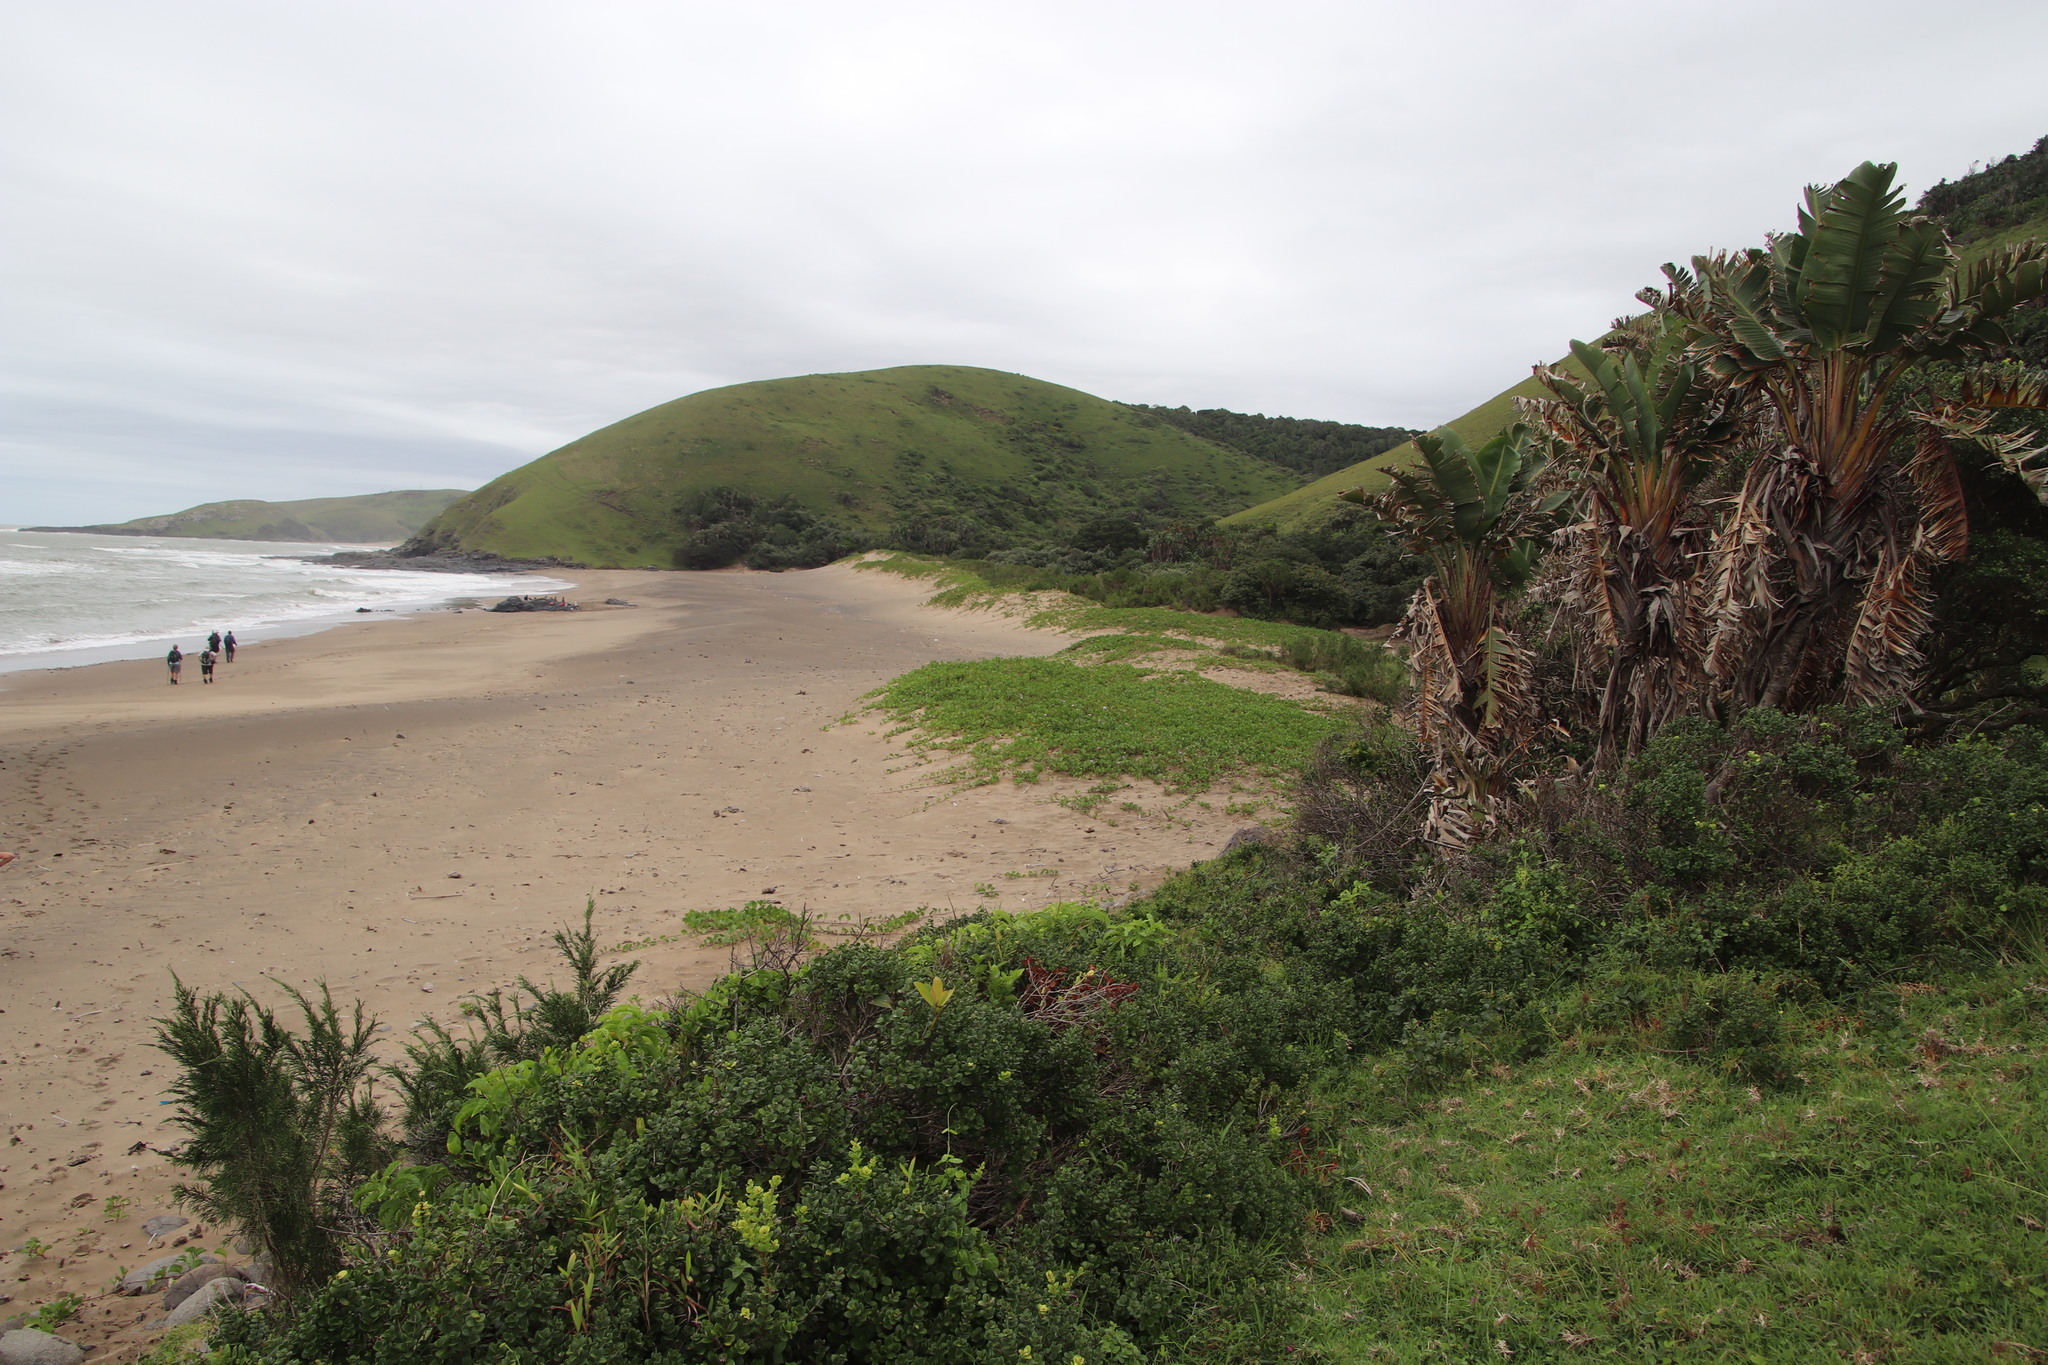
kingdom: Plantae
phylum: Tracheophyta
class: Magnoliopsida
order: Solanales
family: Convolvulaceae
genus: Ipomoea
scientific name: Ipomoea pes-caprae
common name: Beach morning glory
